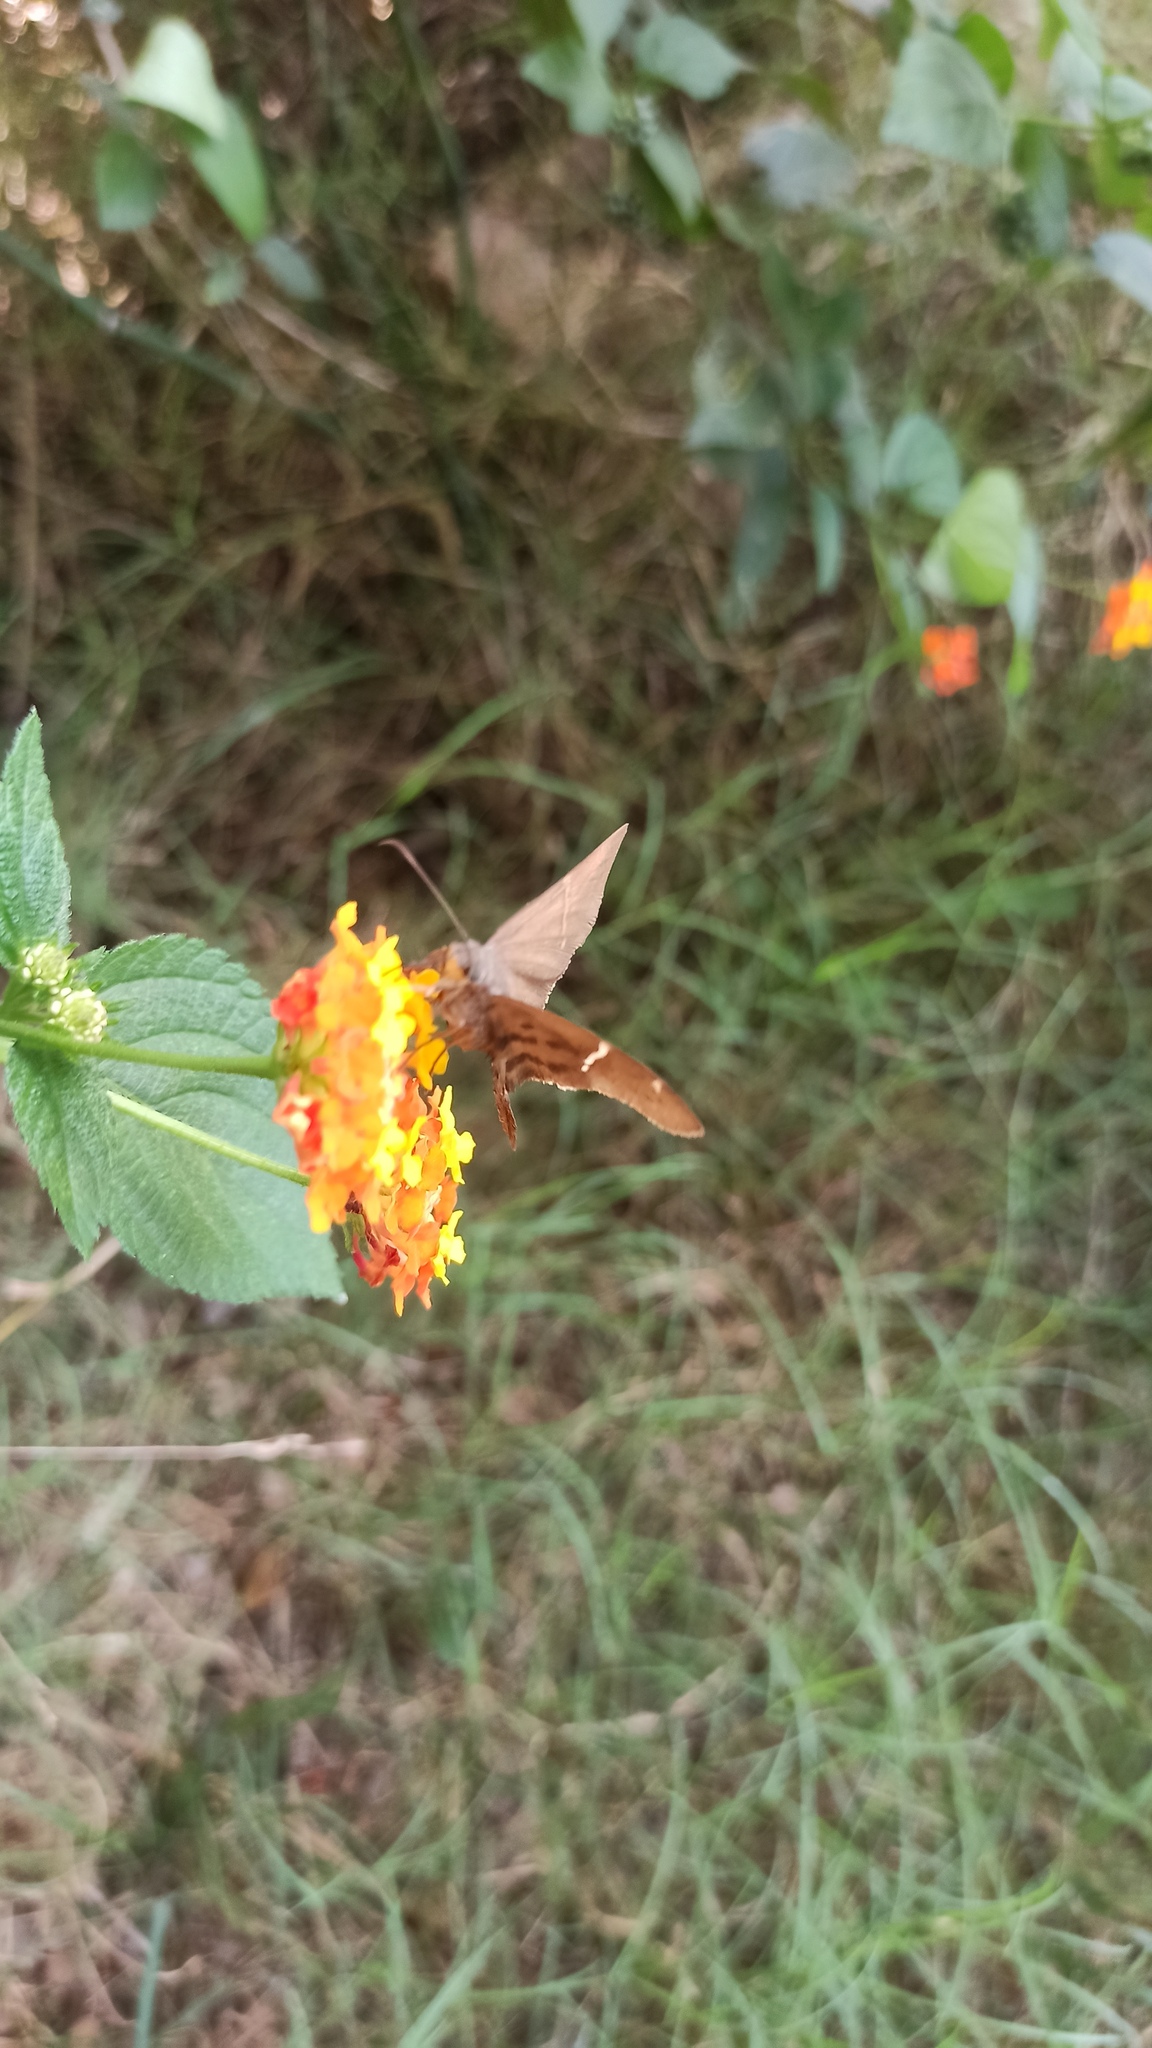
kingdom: Animalia
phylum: Arthropoda
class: Insecta
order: Lepidoptera
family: Hesperiidae
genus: Urbanus
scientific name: Urbanus teleus
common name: Teleus longtail
